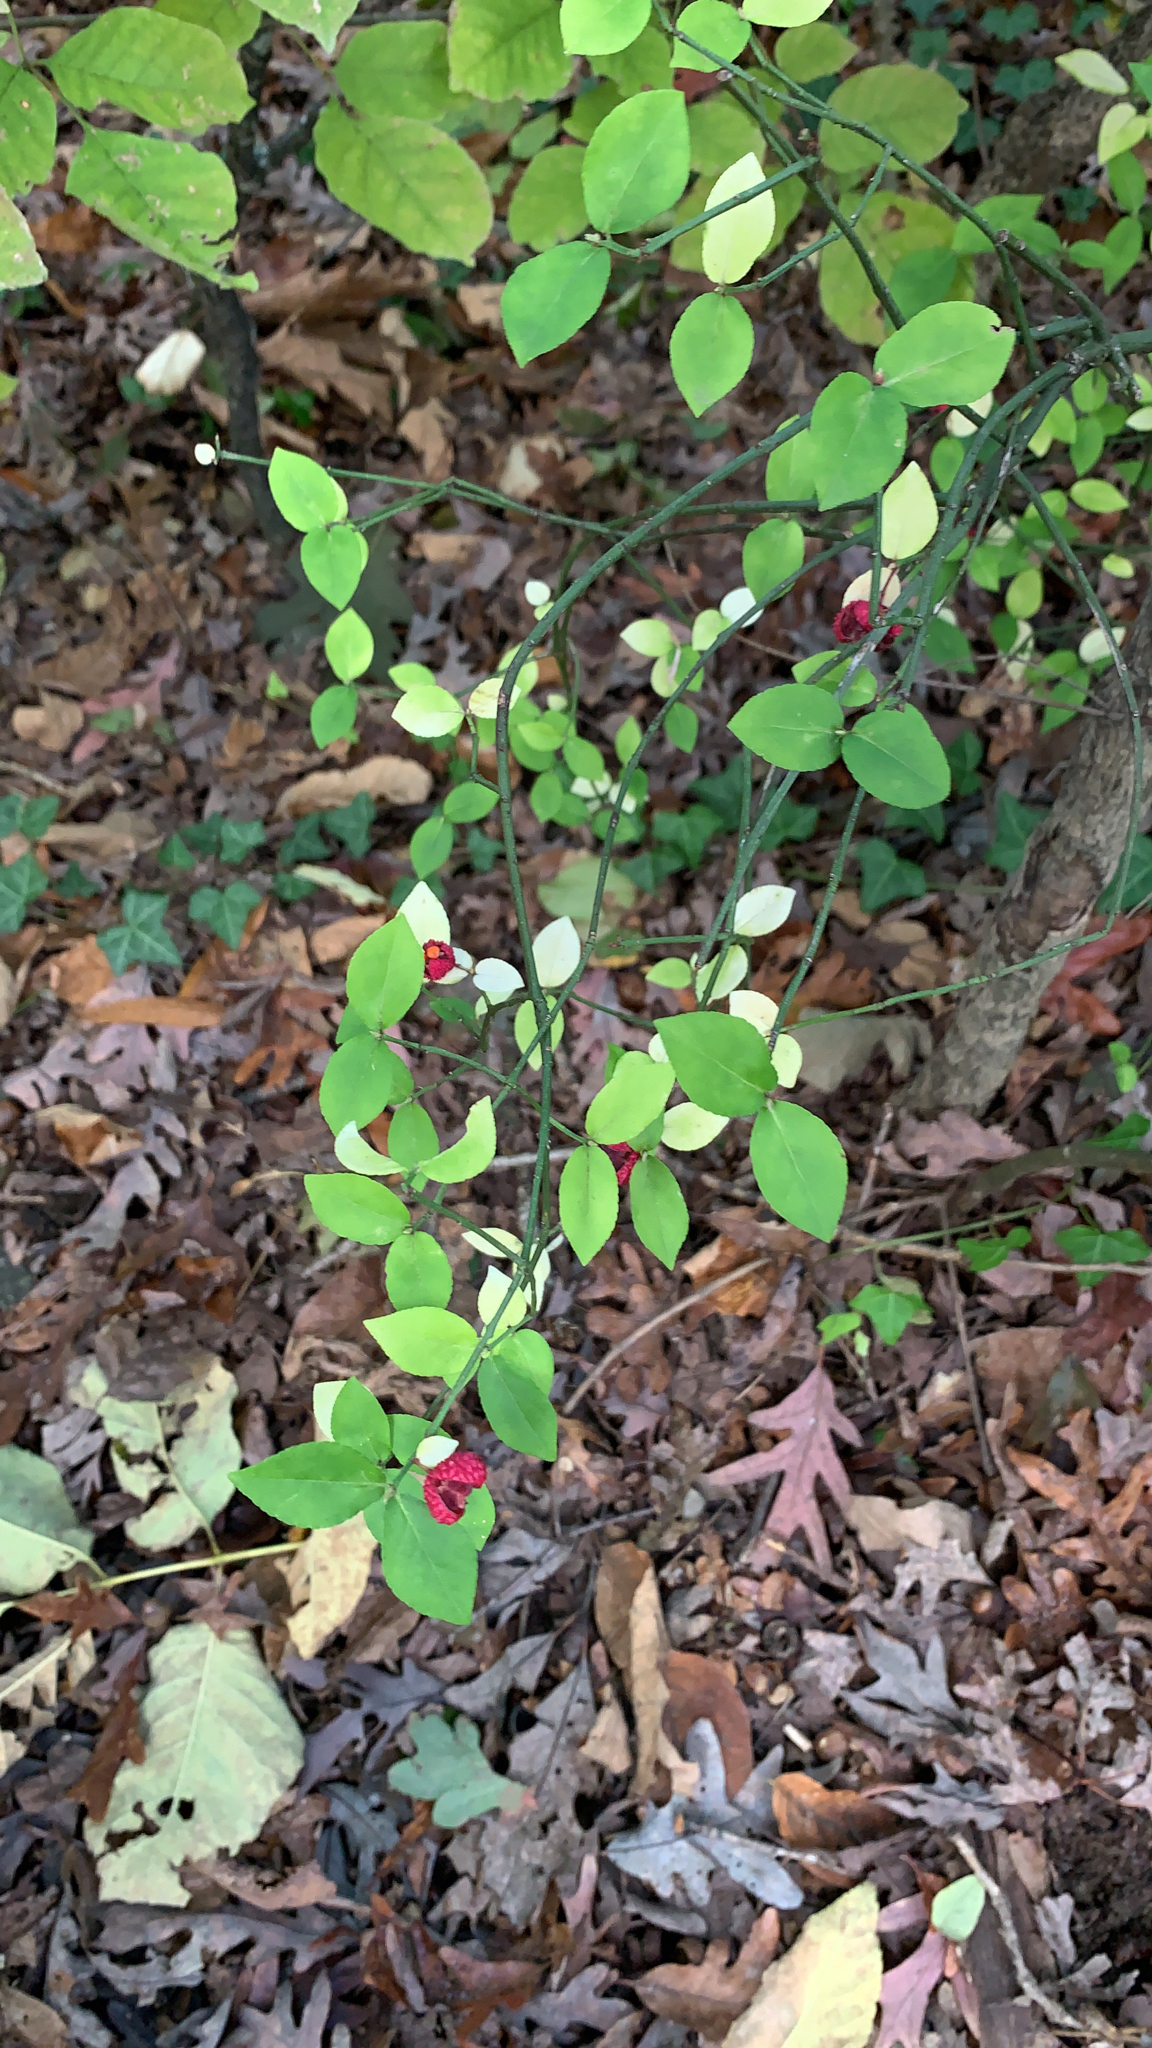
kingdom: Plantae
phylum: Tracheophyta
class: Magnoliopsida
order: Celastrales
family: Celastraceae
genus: Euonymus
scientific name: Euonymus americanus
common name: Bursting-heart
